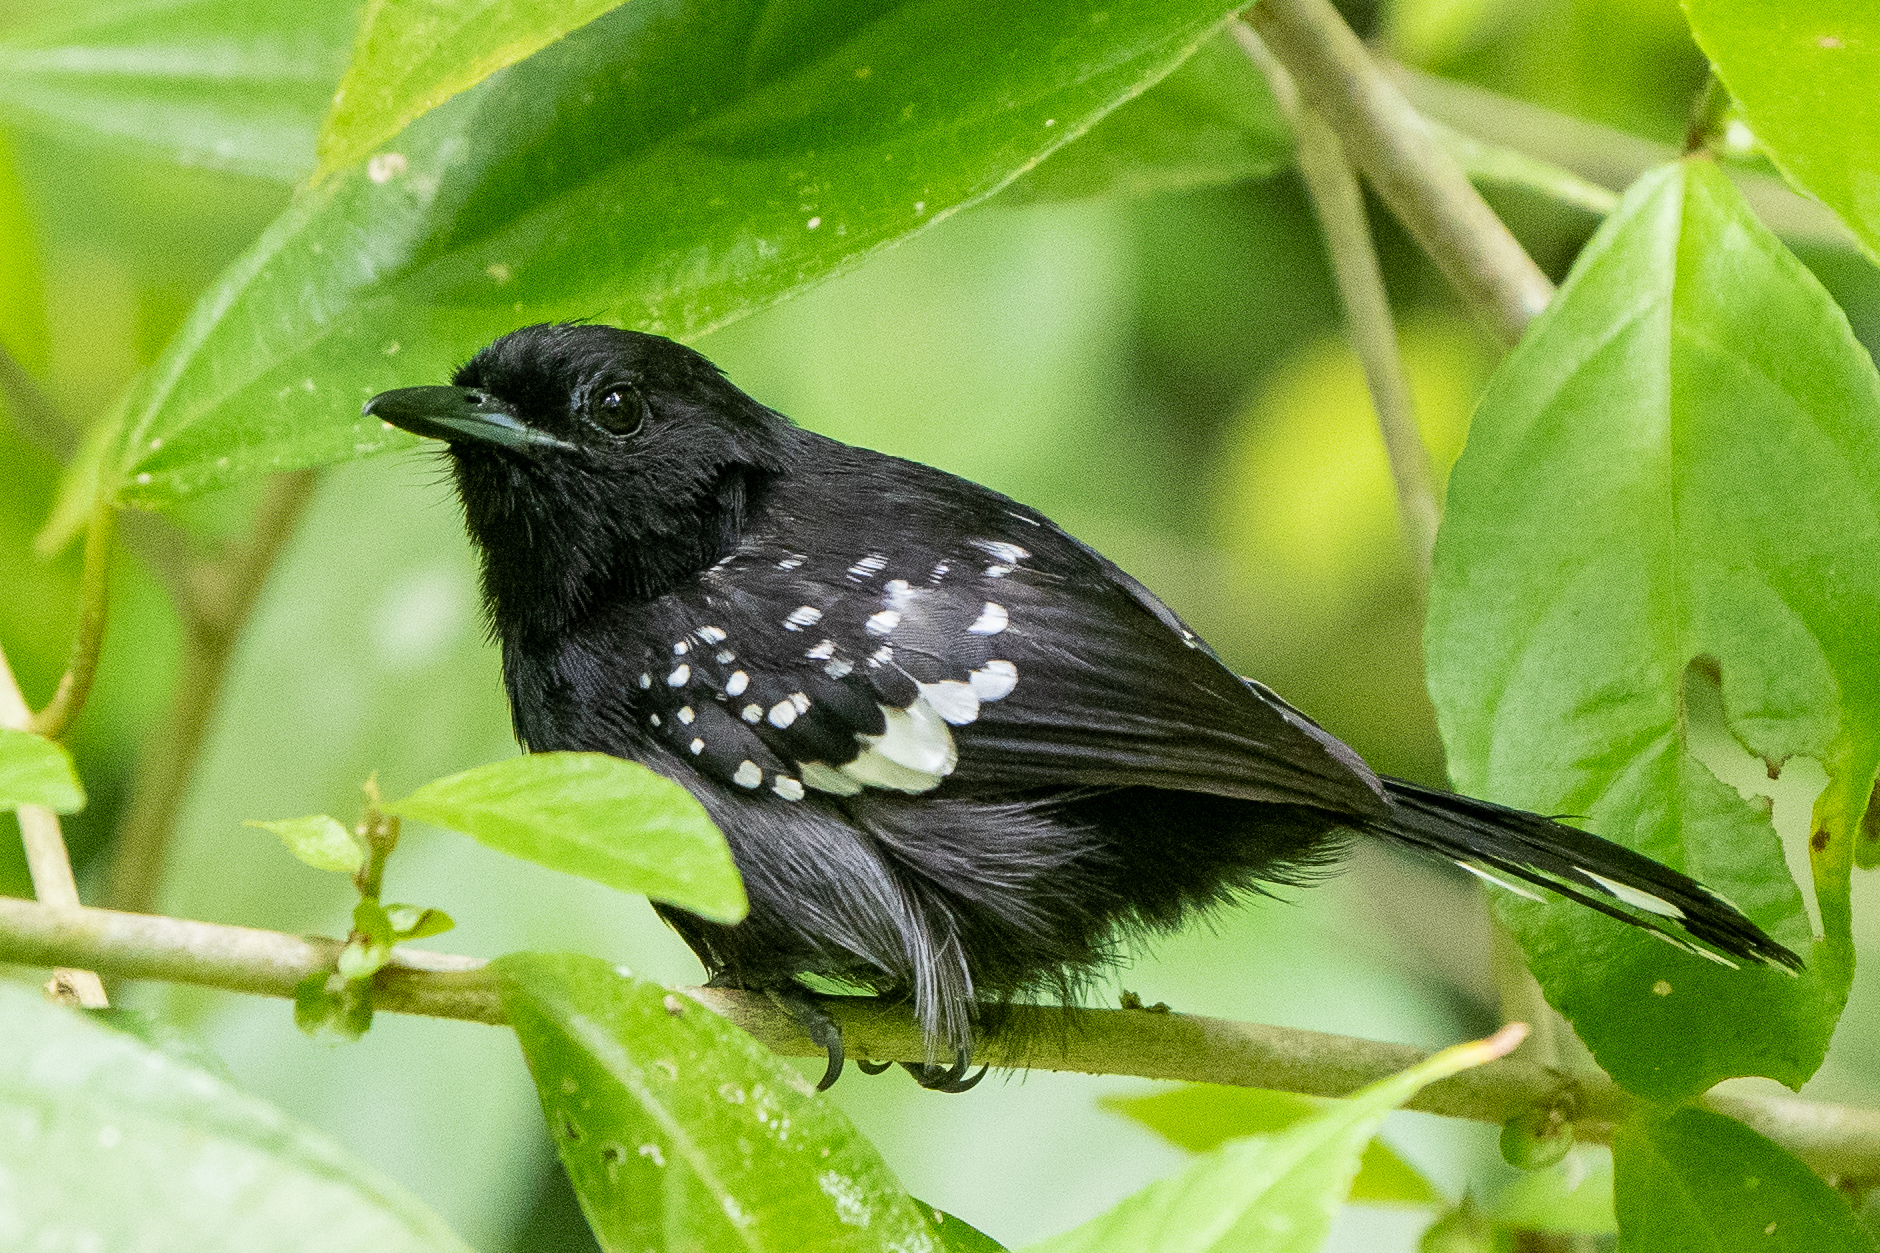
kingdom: Animalia
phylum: Chordata
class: Aves
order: Passeriformes
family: Thamnophilidae
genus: Microrhopias
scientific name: Microrhopias quixensis
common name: Dot-winged antwren
